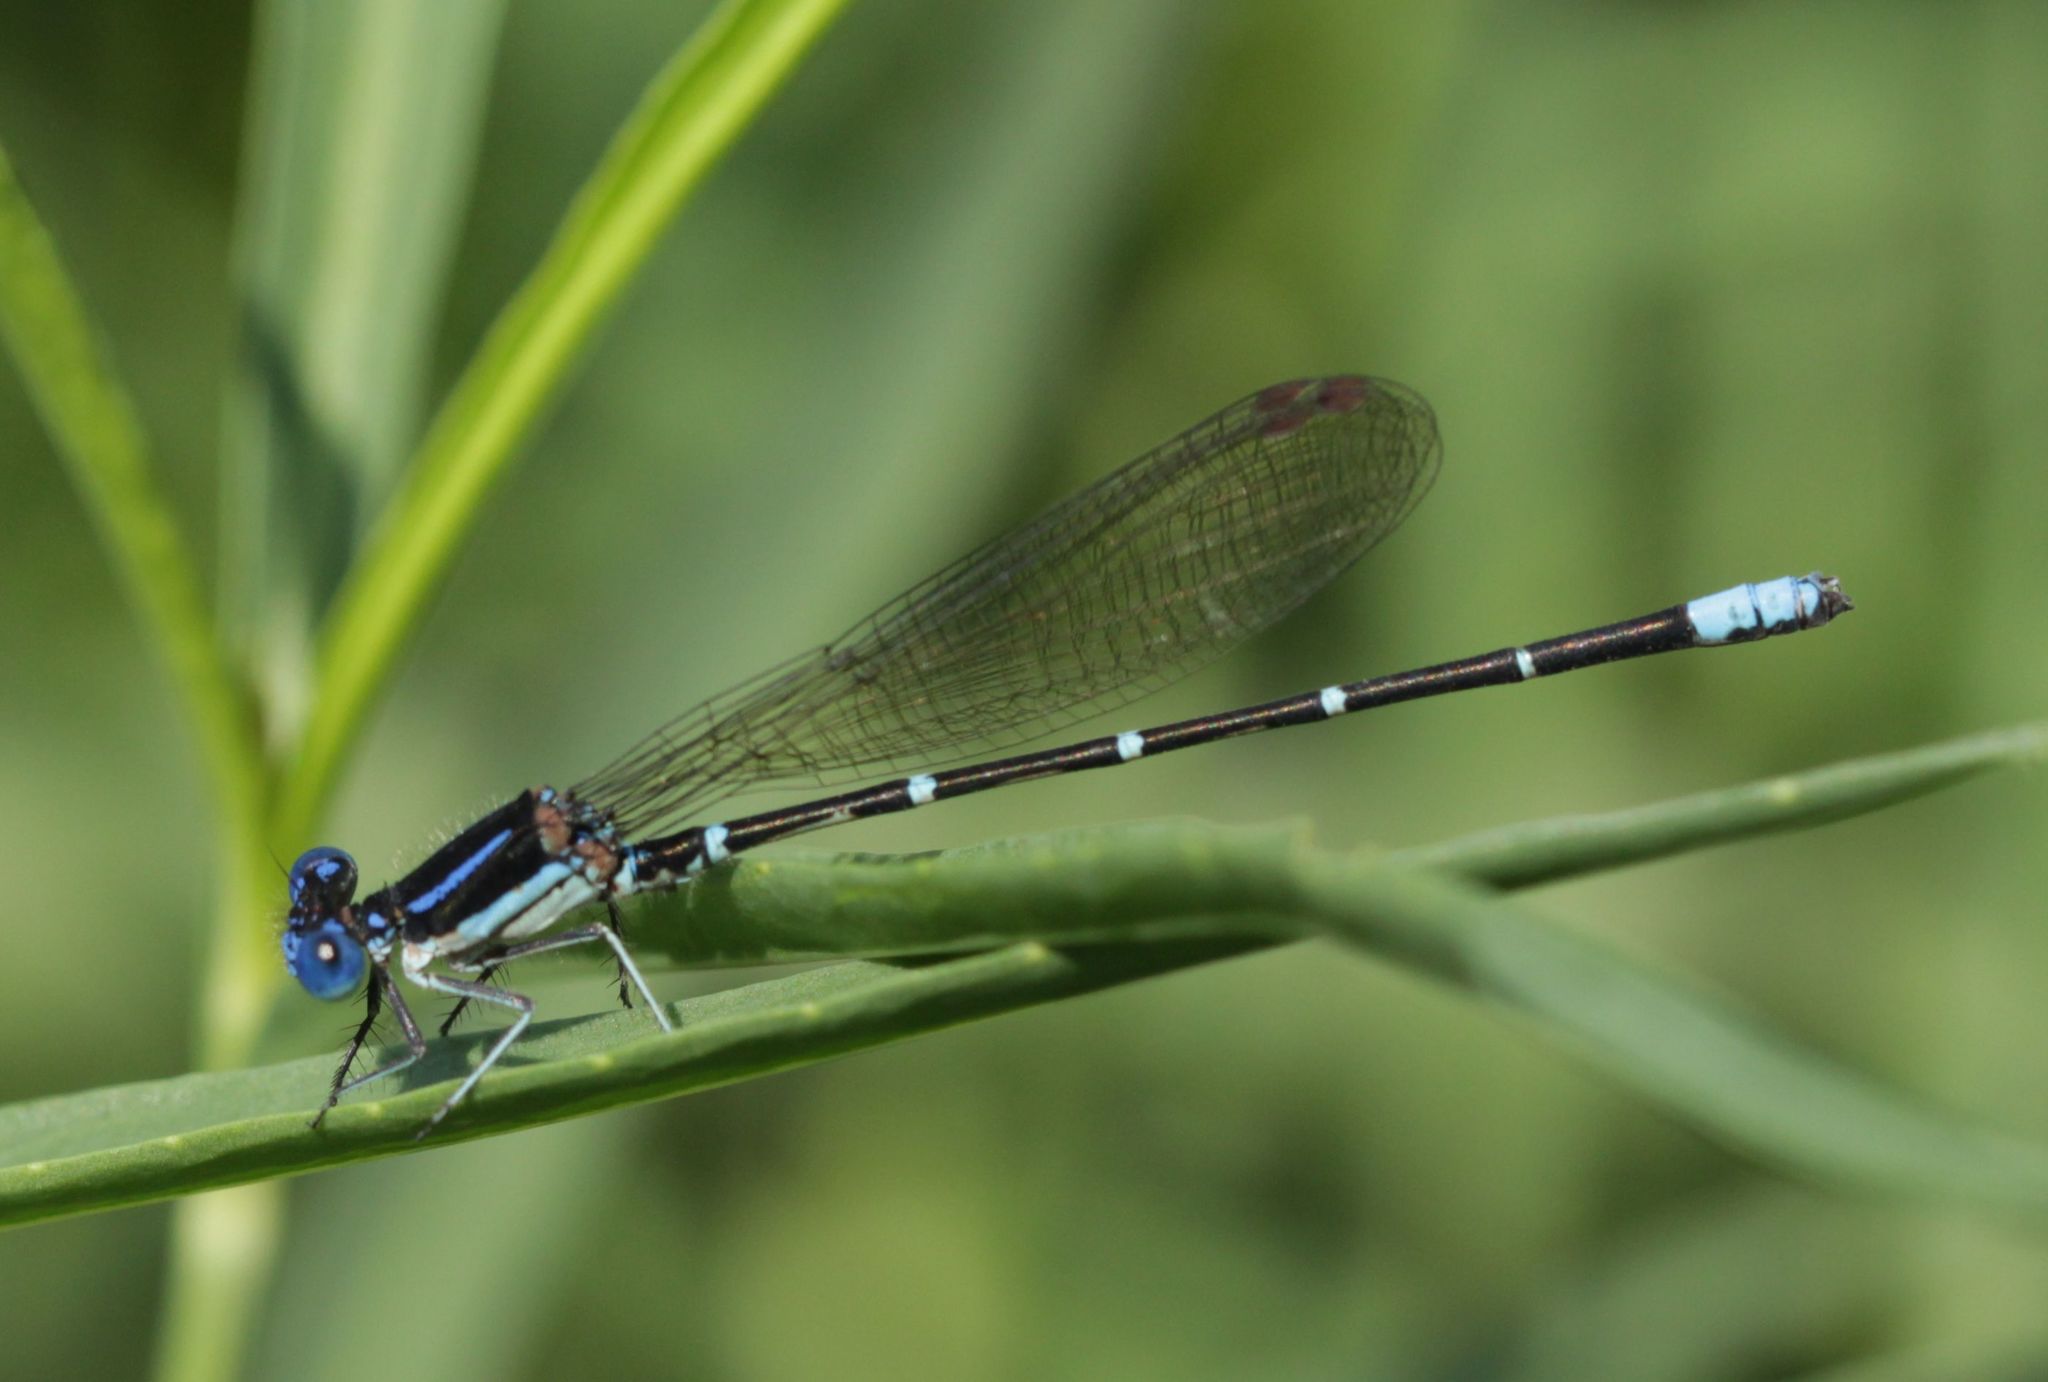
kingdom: Animalia
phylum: Arthropoda
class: Insecta
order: Odonata
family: Coenagrionidae
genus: Argia
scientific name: Argia sedula
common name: Blue-ringed dancer
